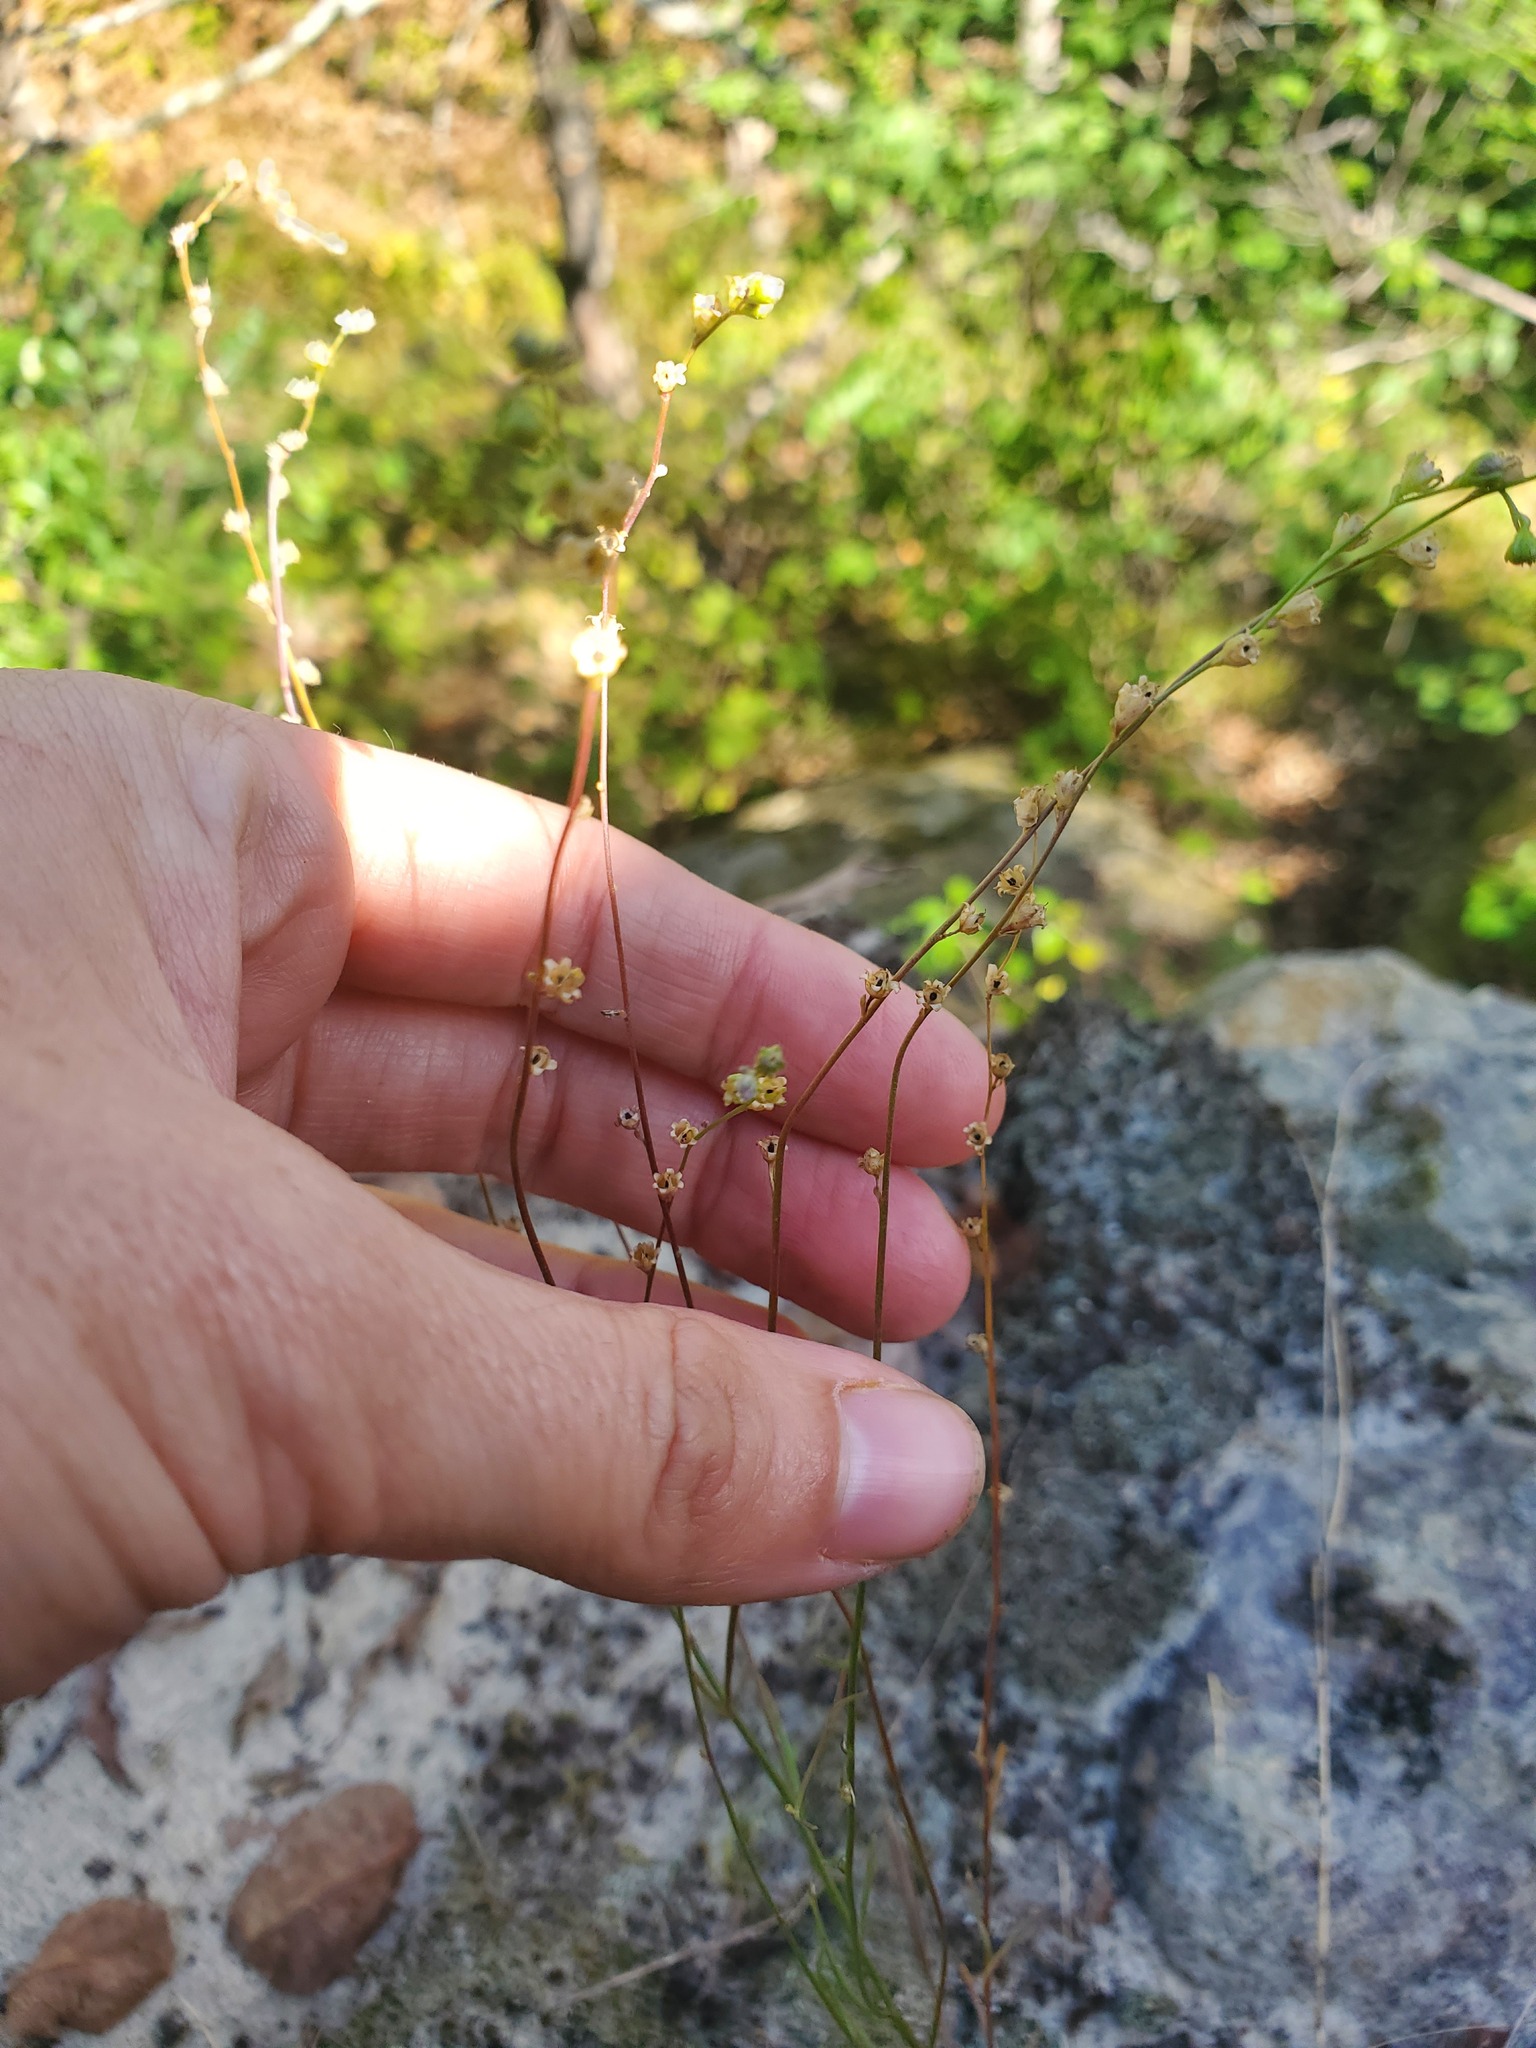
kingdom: Plantae
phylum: Tracheophyta
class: Magnoliopsida
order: Lamiales
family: Plantaginaceae
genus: Nuttallanthus
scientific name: Nuttallanthus canadensis
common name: Blue toadflax
